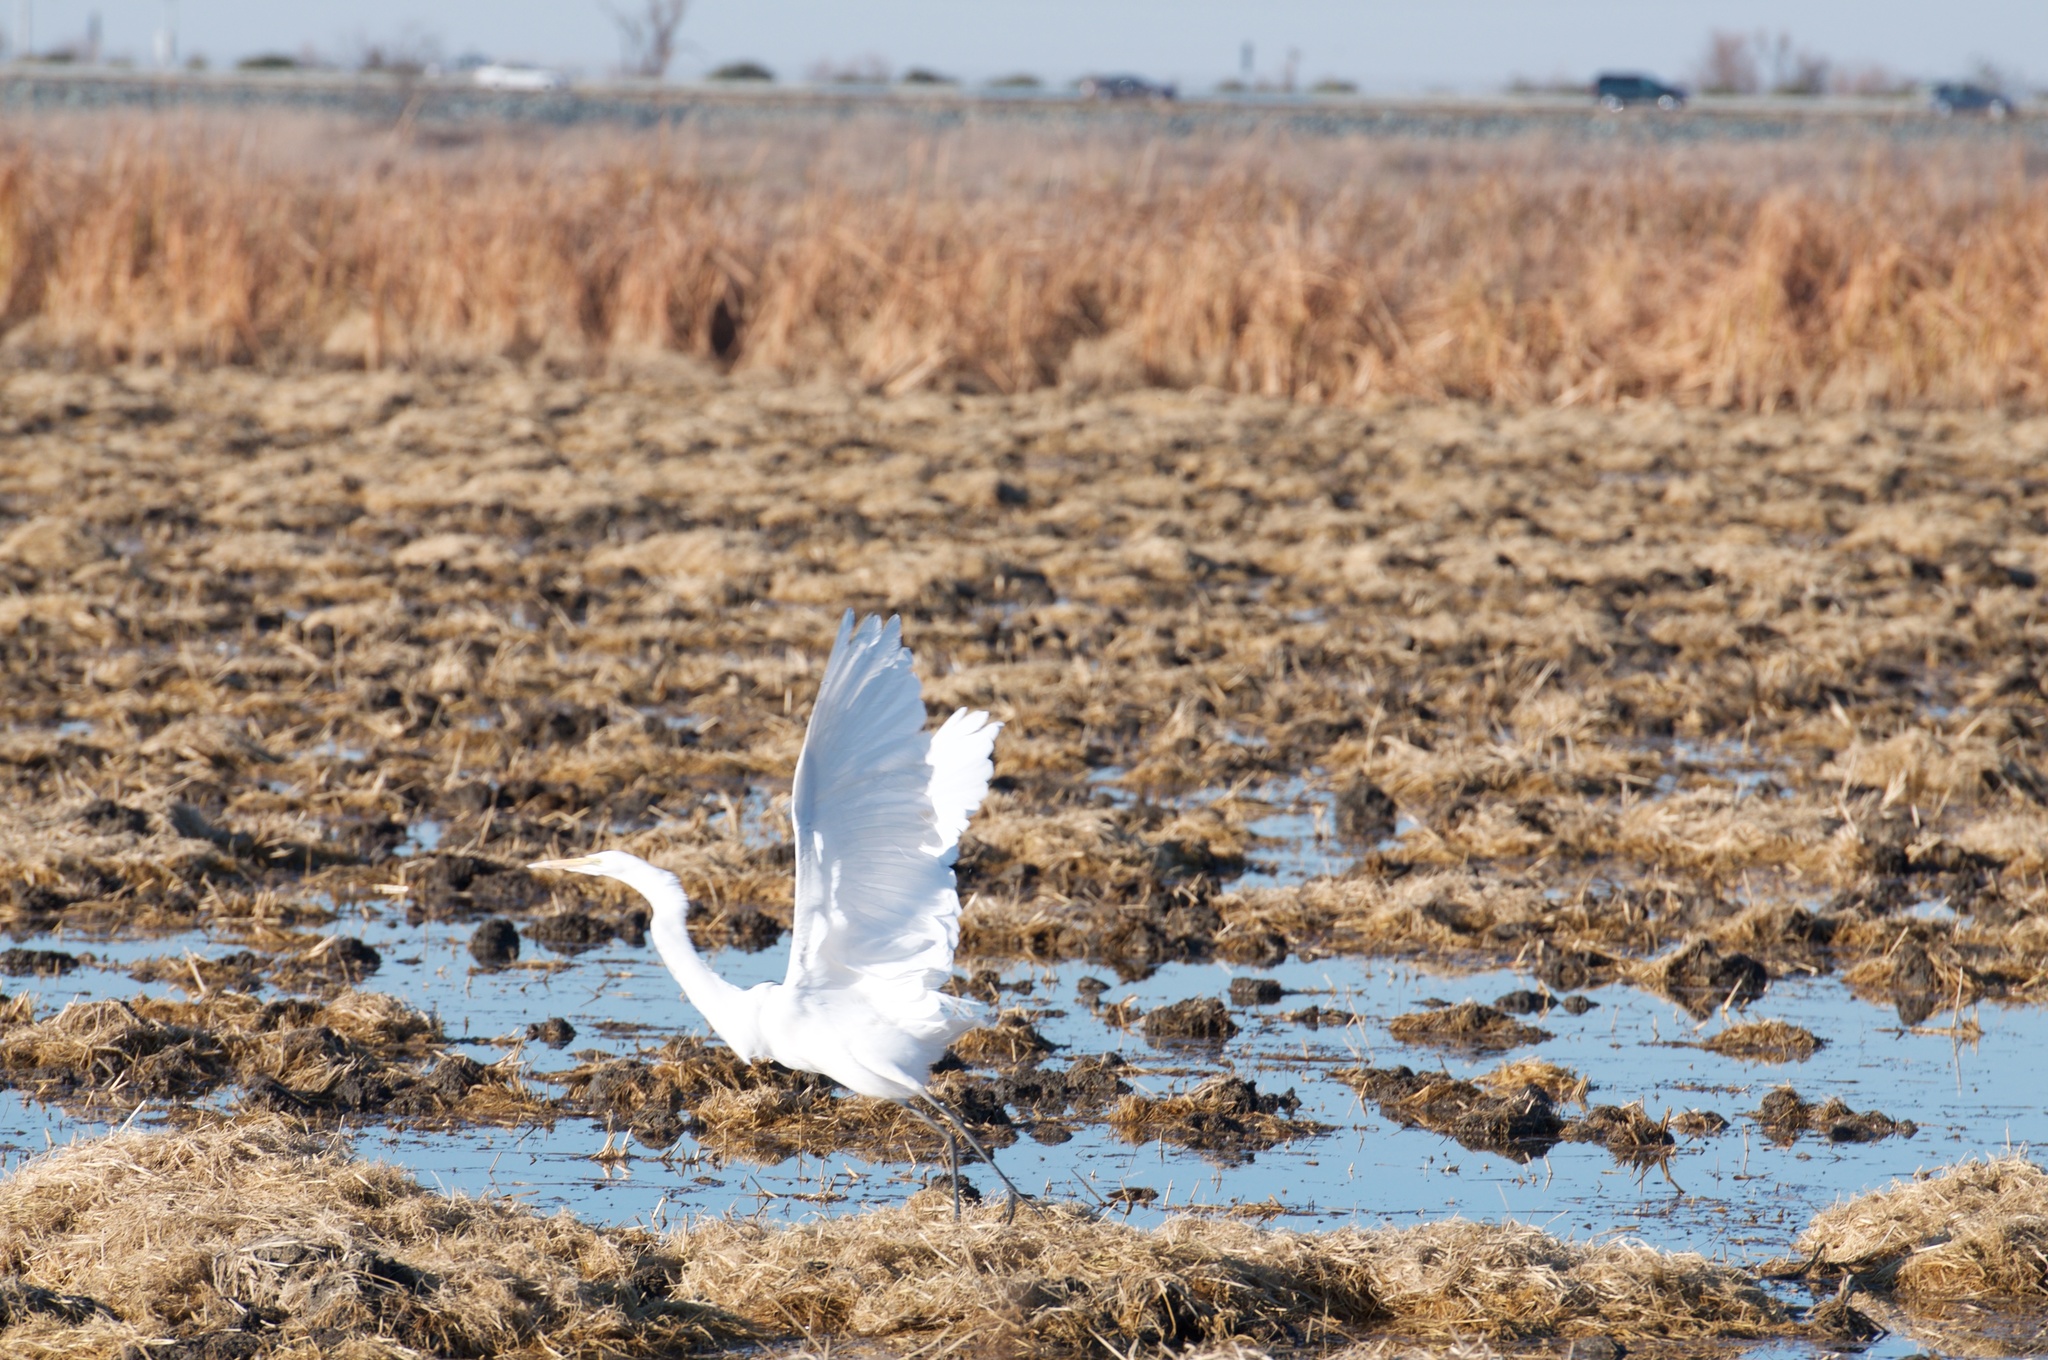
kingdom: Animalia
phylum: Chordata
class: Aves
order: Pelecaniformes
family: Ardeidae
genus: Ardea
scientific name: Ardea alba
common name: Great egret
